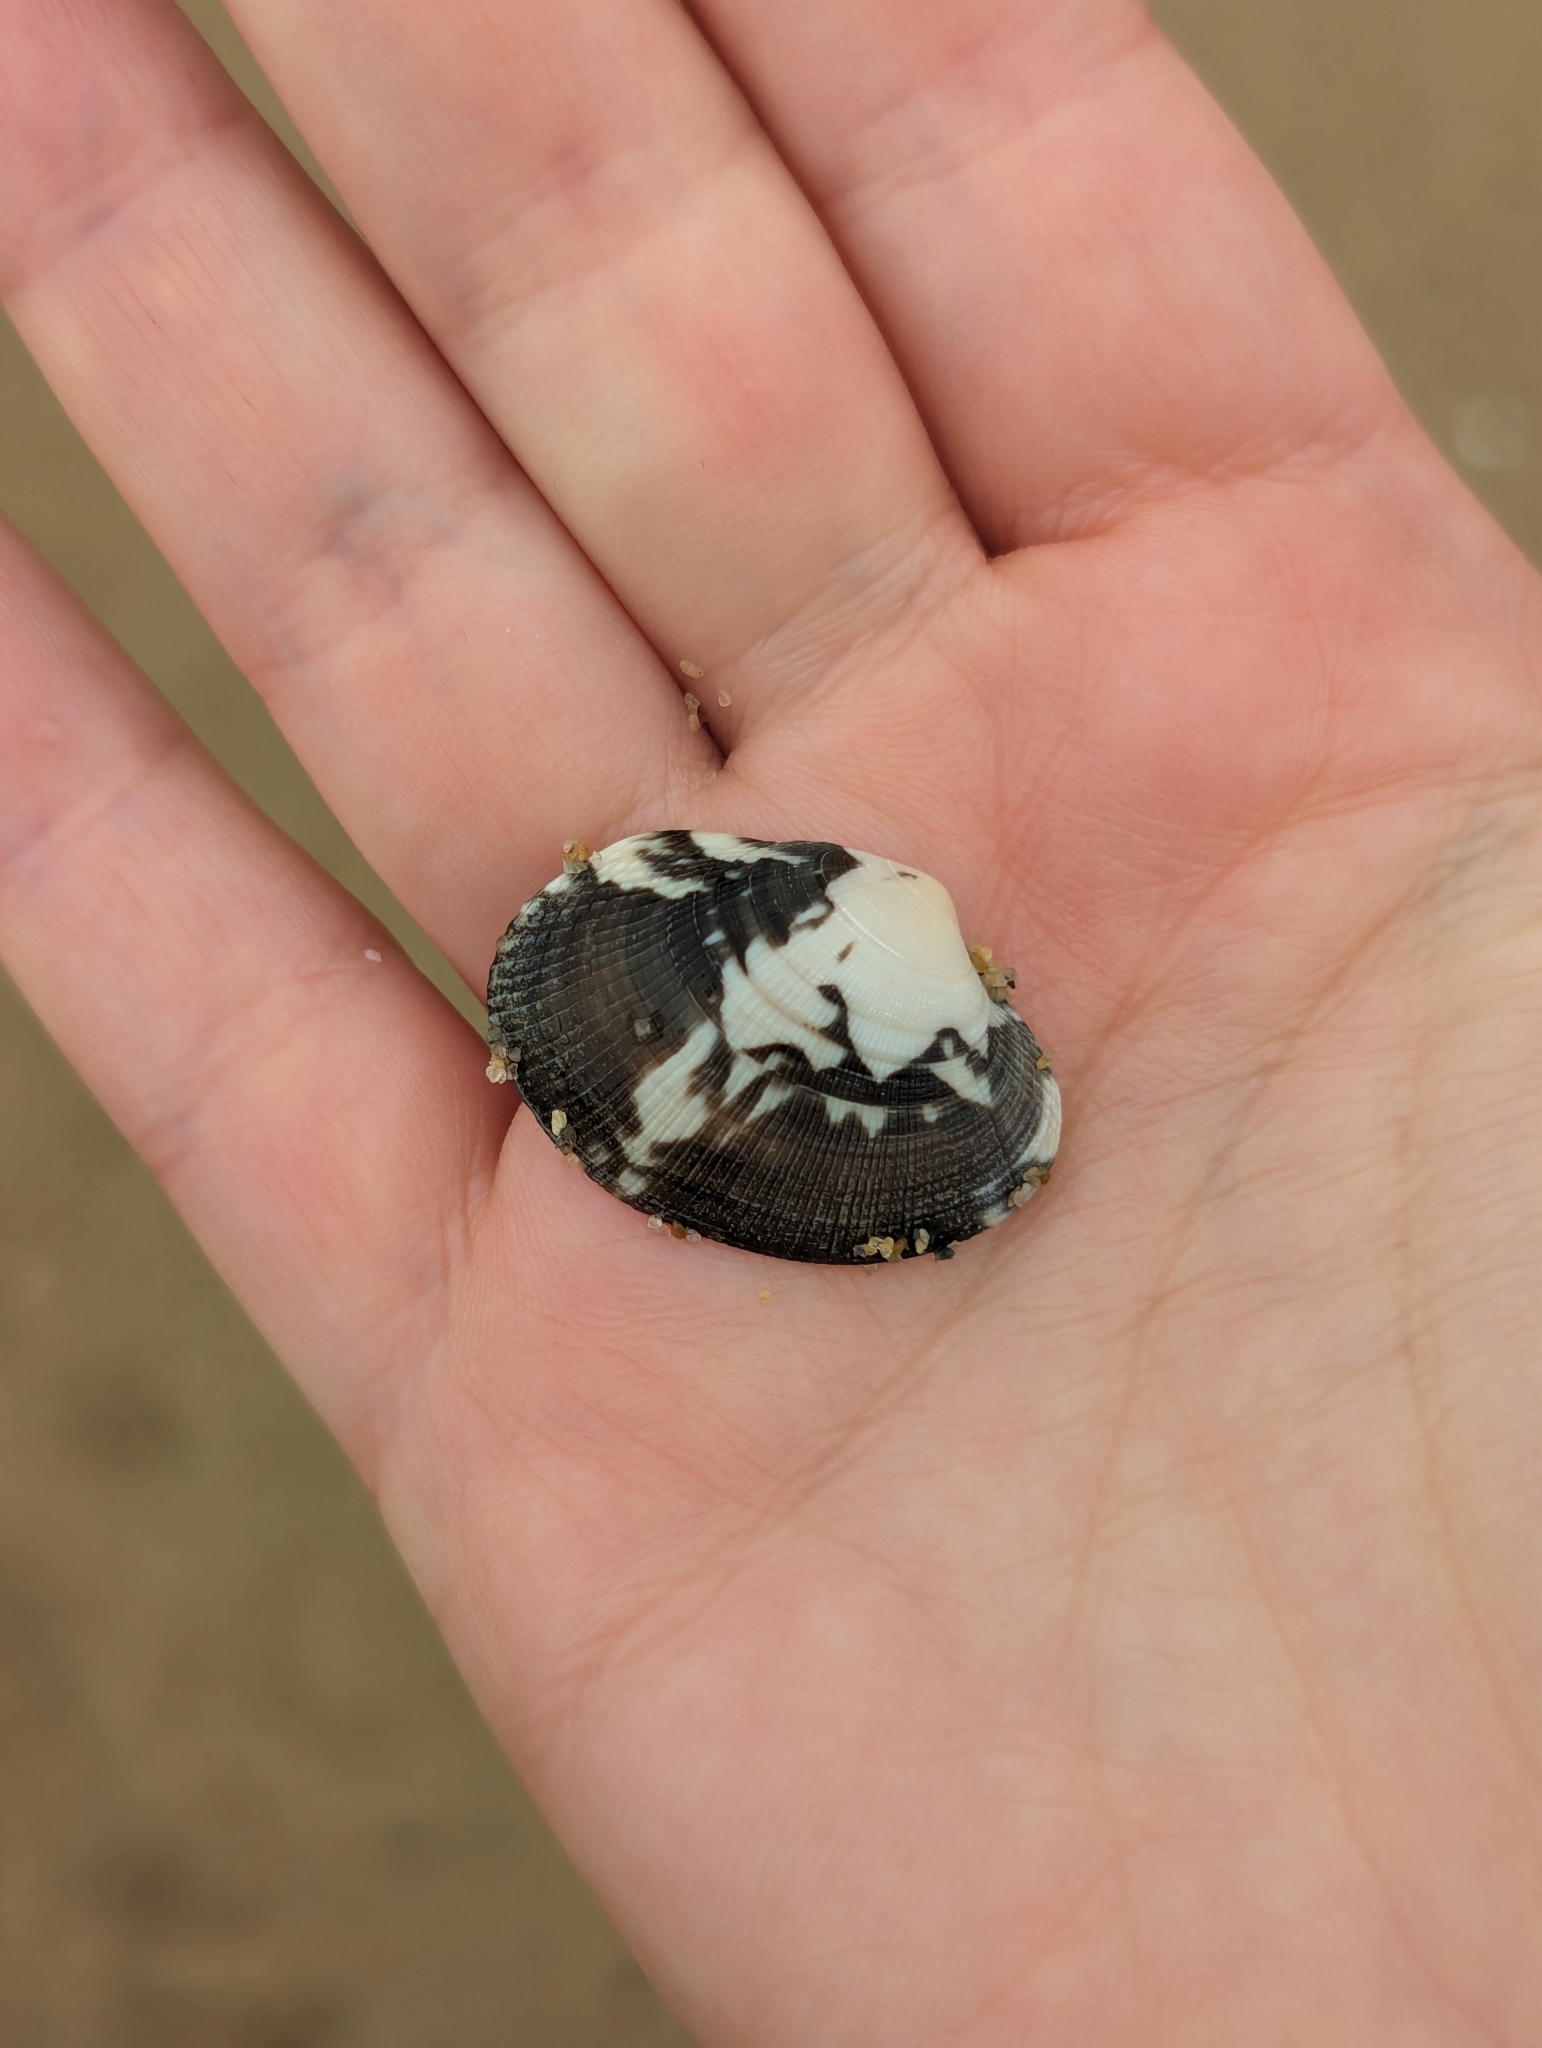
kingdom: Animalia
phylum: Mollusca
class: Bivalvia
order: Venerida
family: Veneridae
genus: Ruditapes
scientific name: Ruditapes philippinarum
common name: Manila clam
